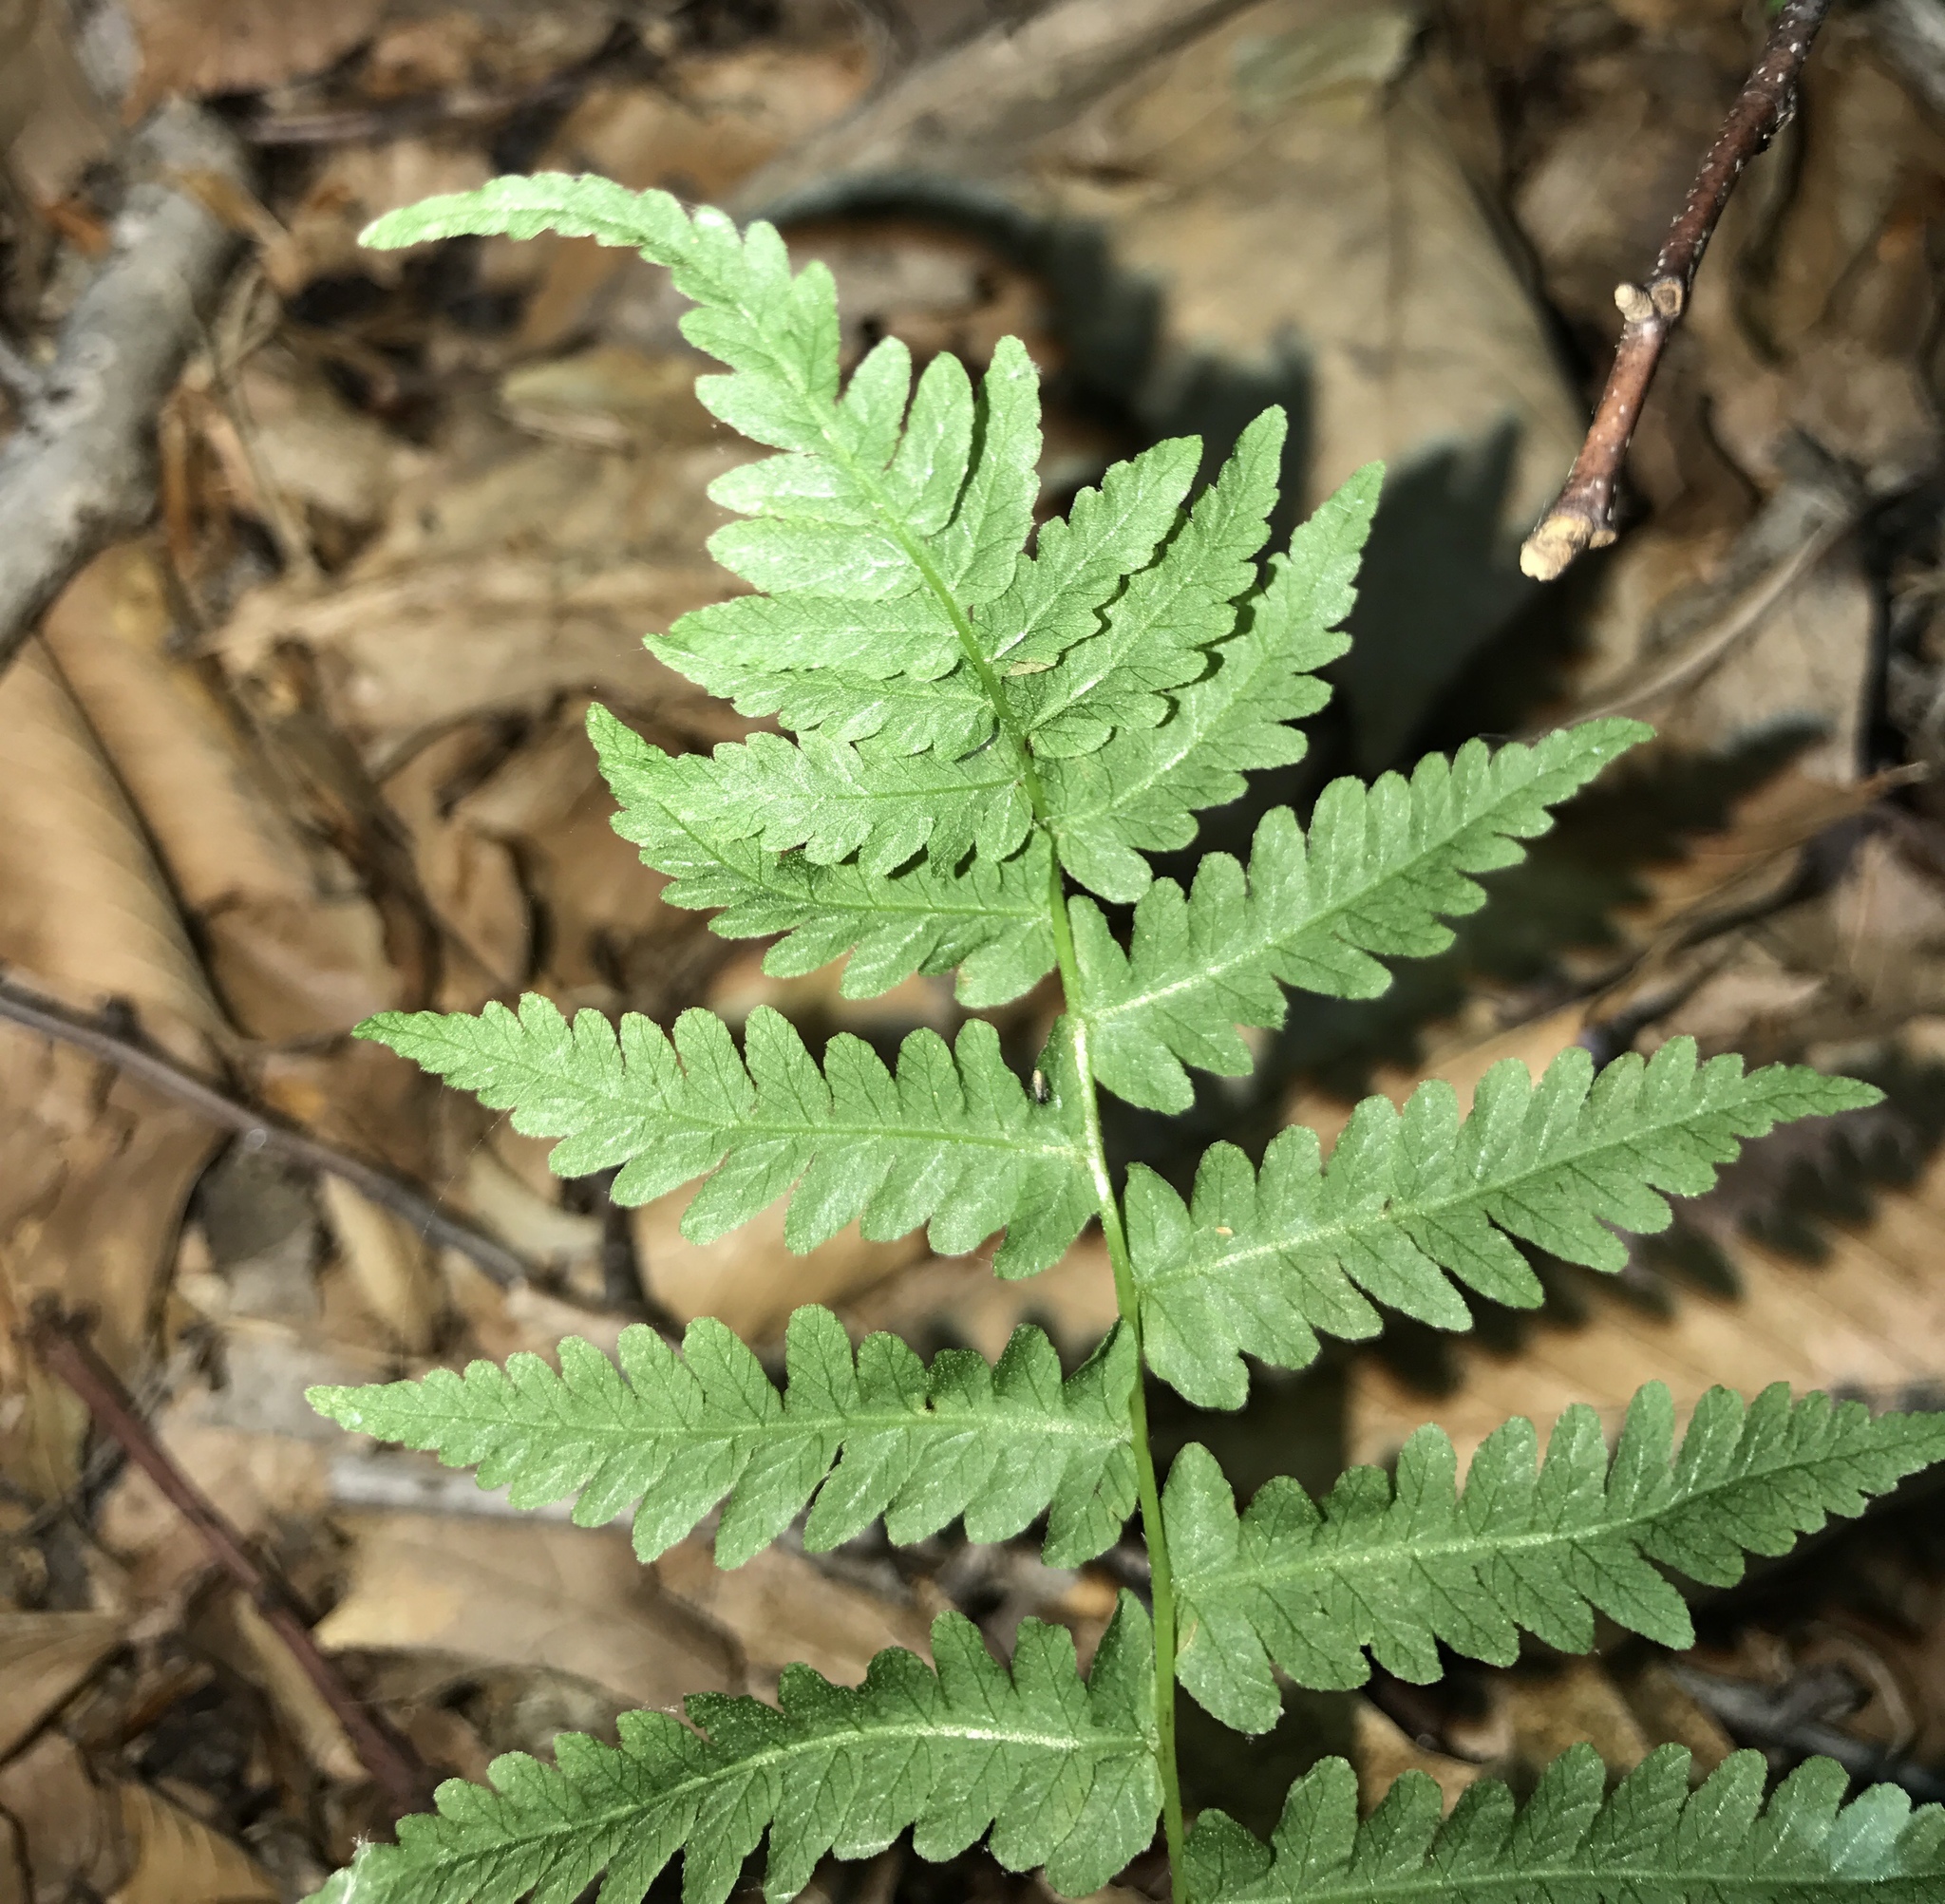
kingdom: Plantae
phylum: Tracheophyta
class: Polypodiopsida
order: Polypodiales
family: Thelypteridaceae
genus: Coryphopteris
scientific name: Coryphopteris simulata
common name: Bog fern
